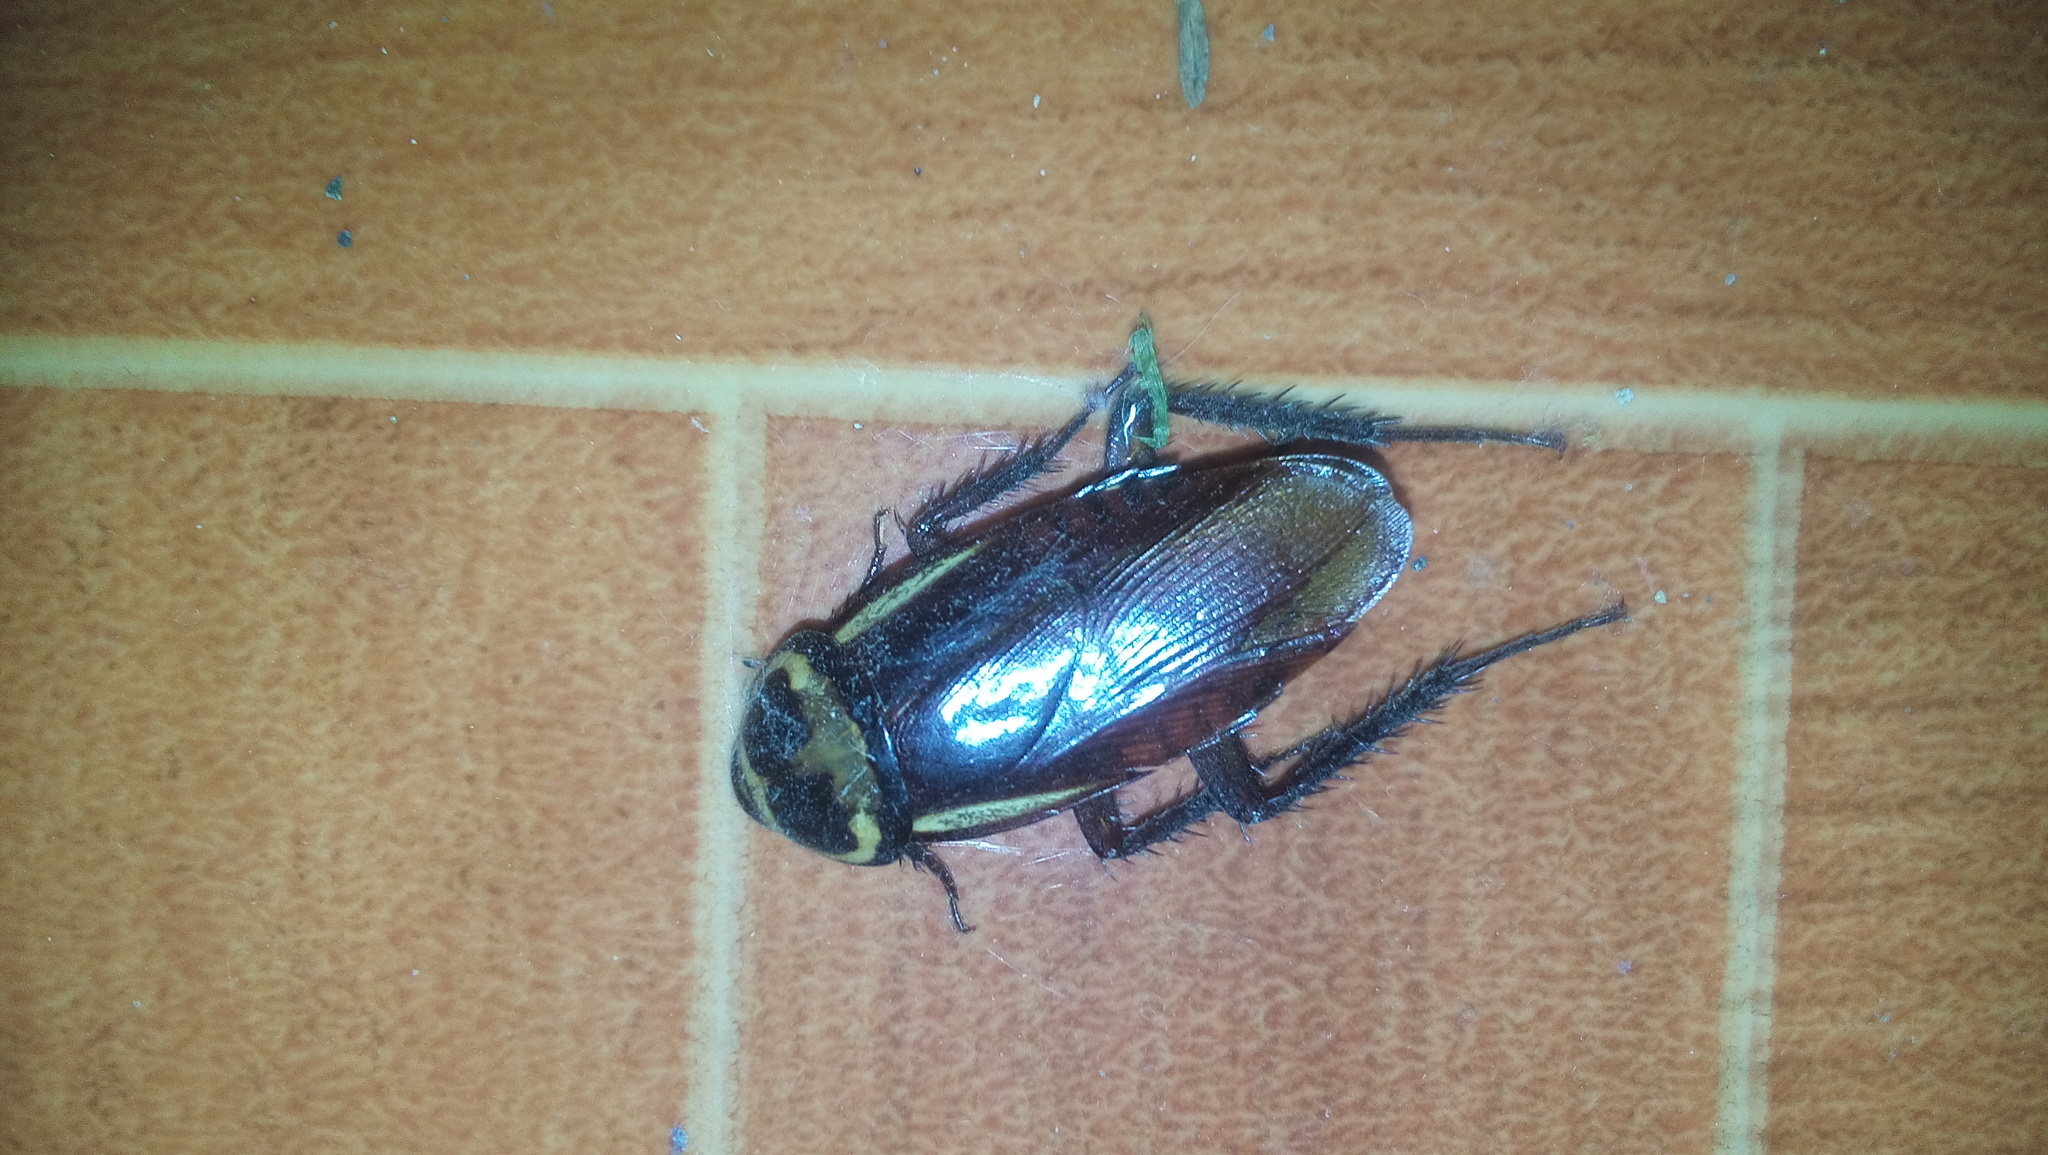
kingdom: Animalia
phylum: Arthropoda
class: Insecta
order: Blattodea
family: Blattidae
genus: Periplaneta
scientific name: Periplaneta australasiae
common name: Australian cockroach
